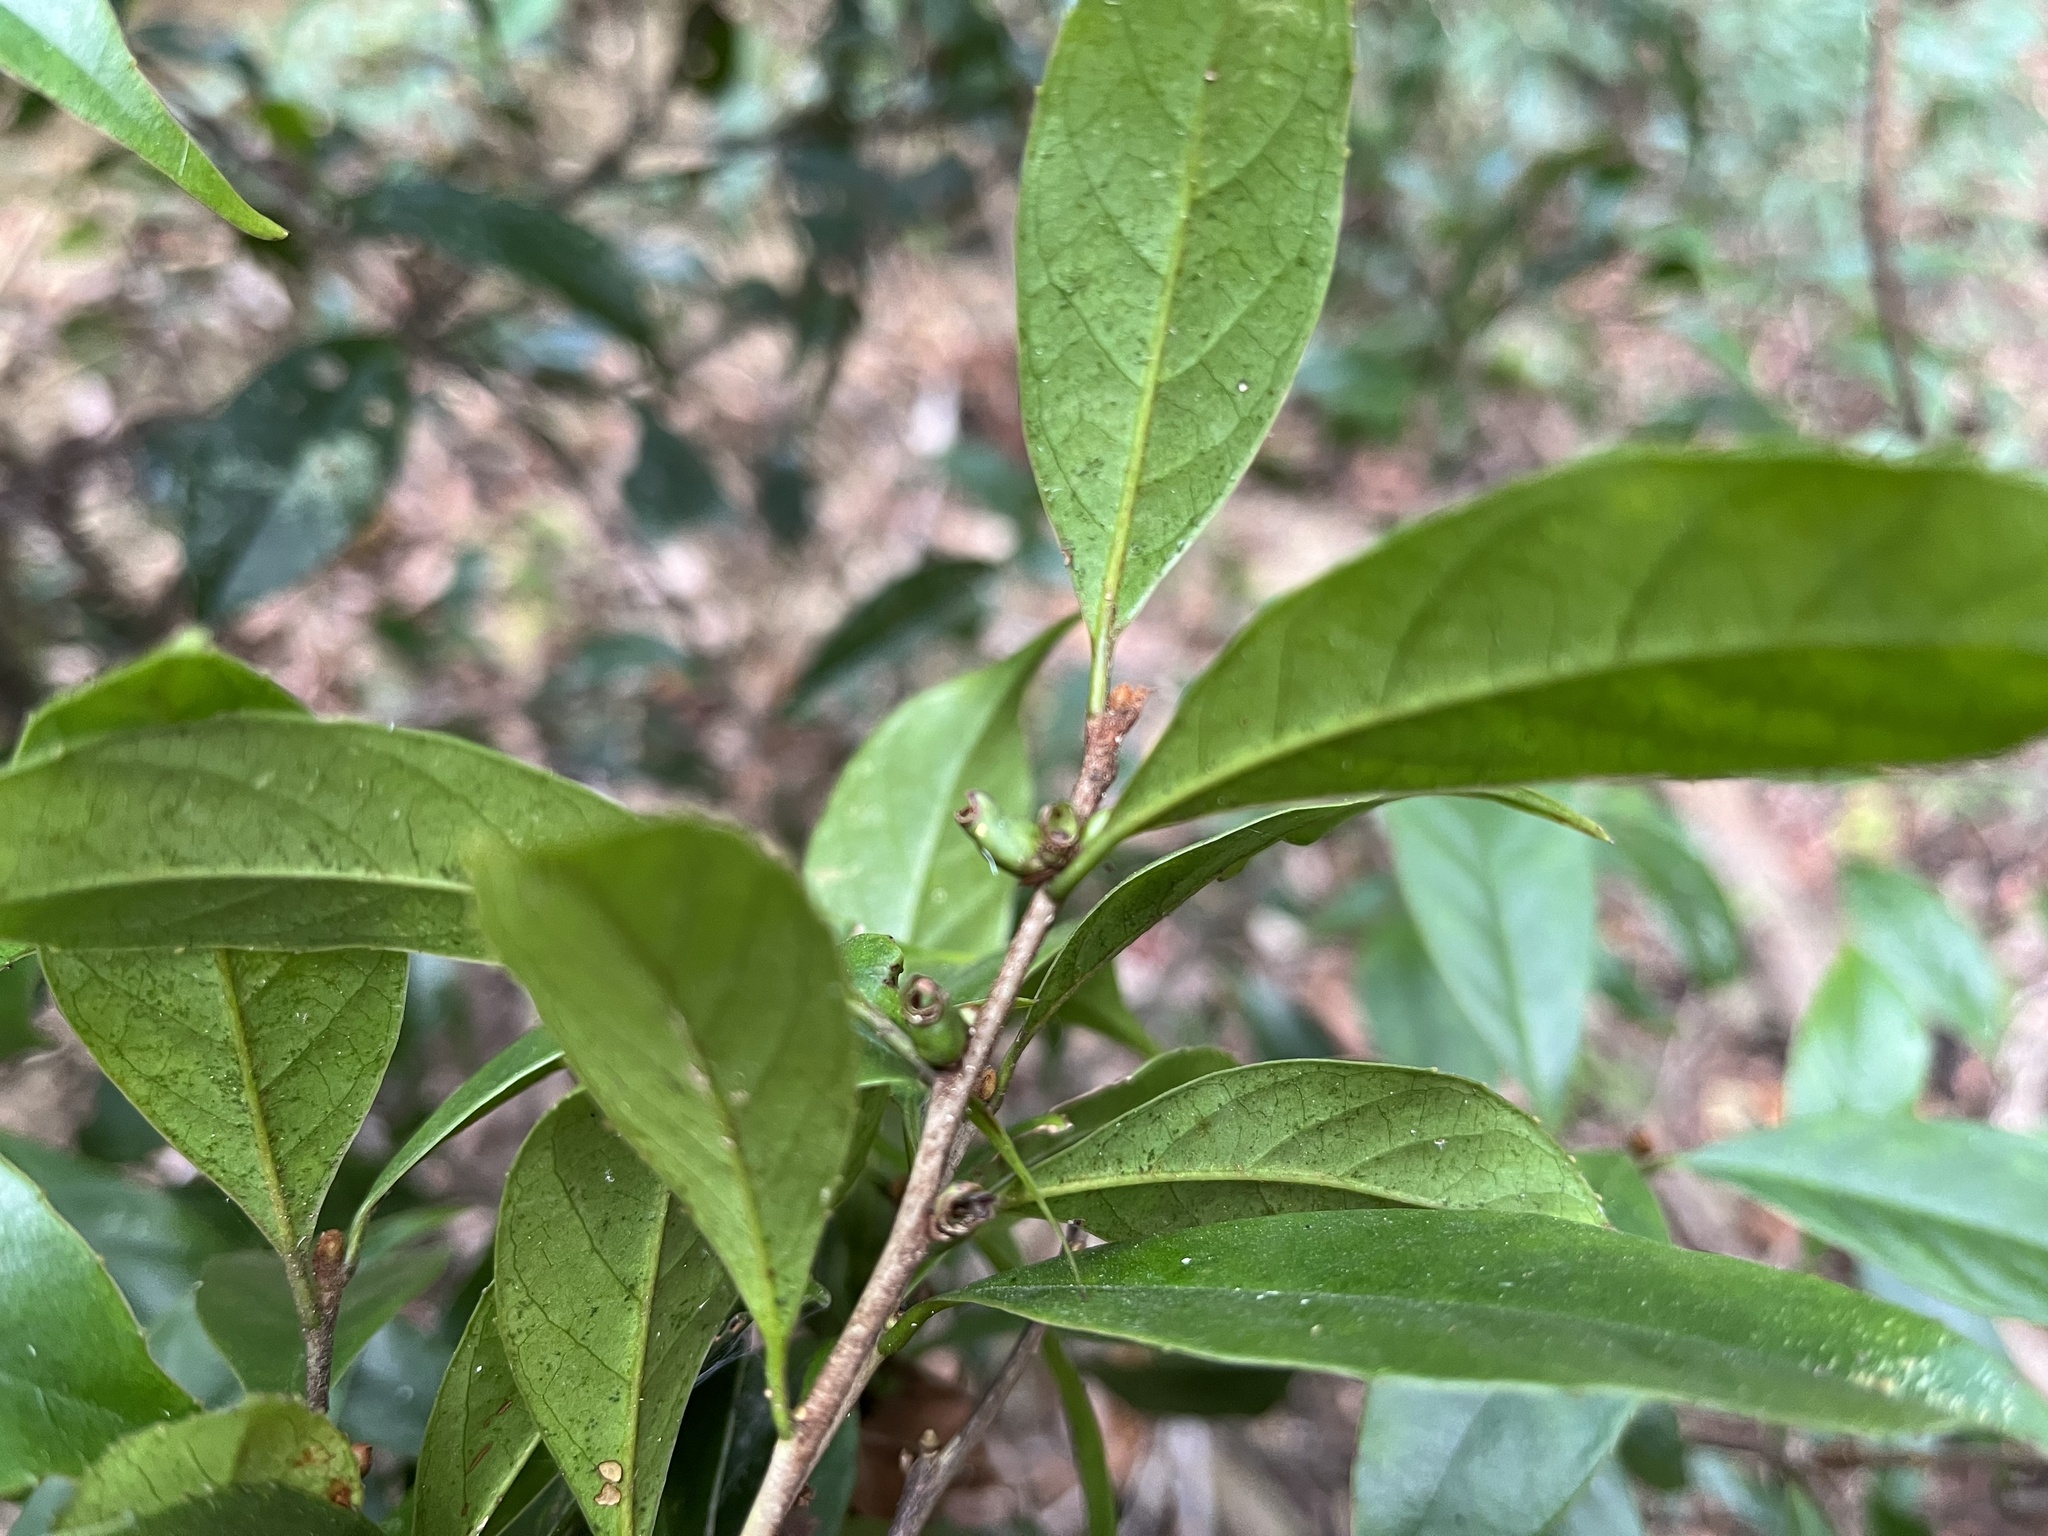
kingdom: Plantae
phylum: Tracheophyta
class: Magnoliopsida
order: Ericales
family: Symplocaceae
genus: Symplocos
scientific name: Symplocos theifolia
